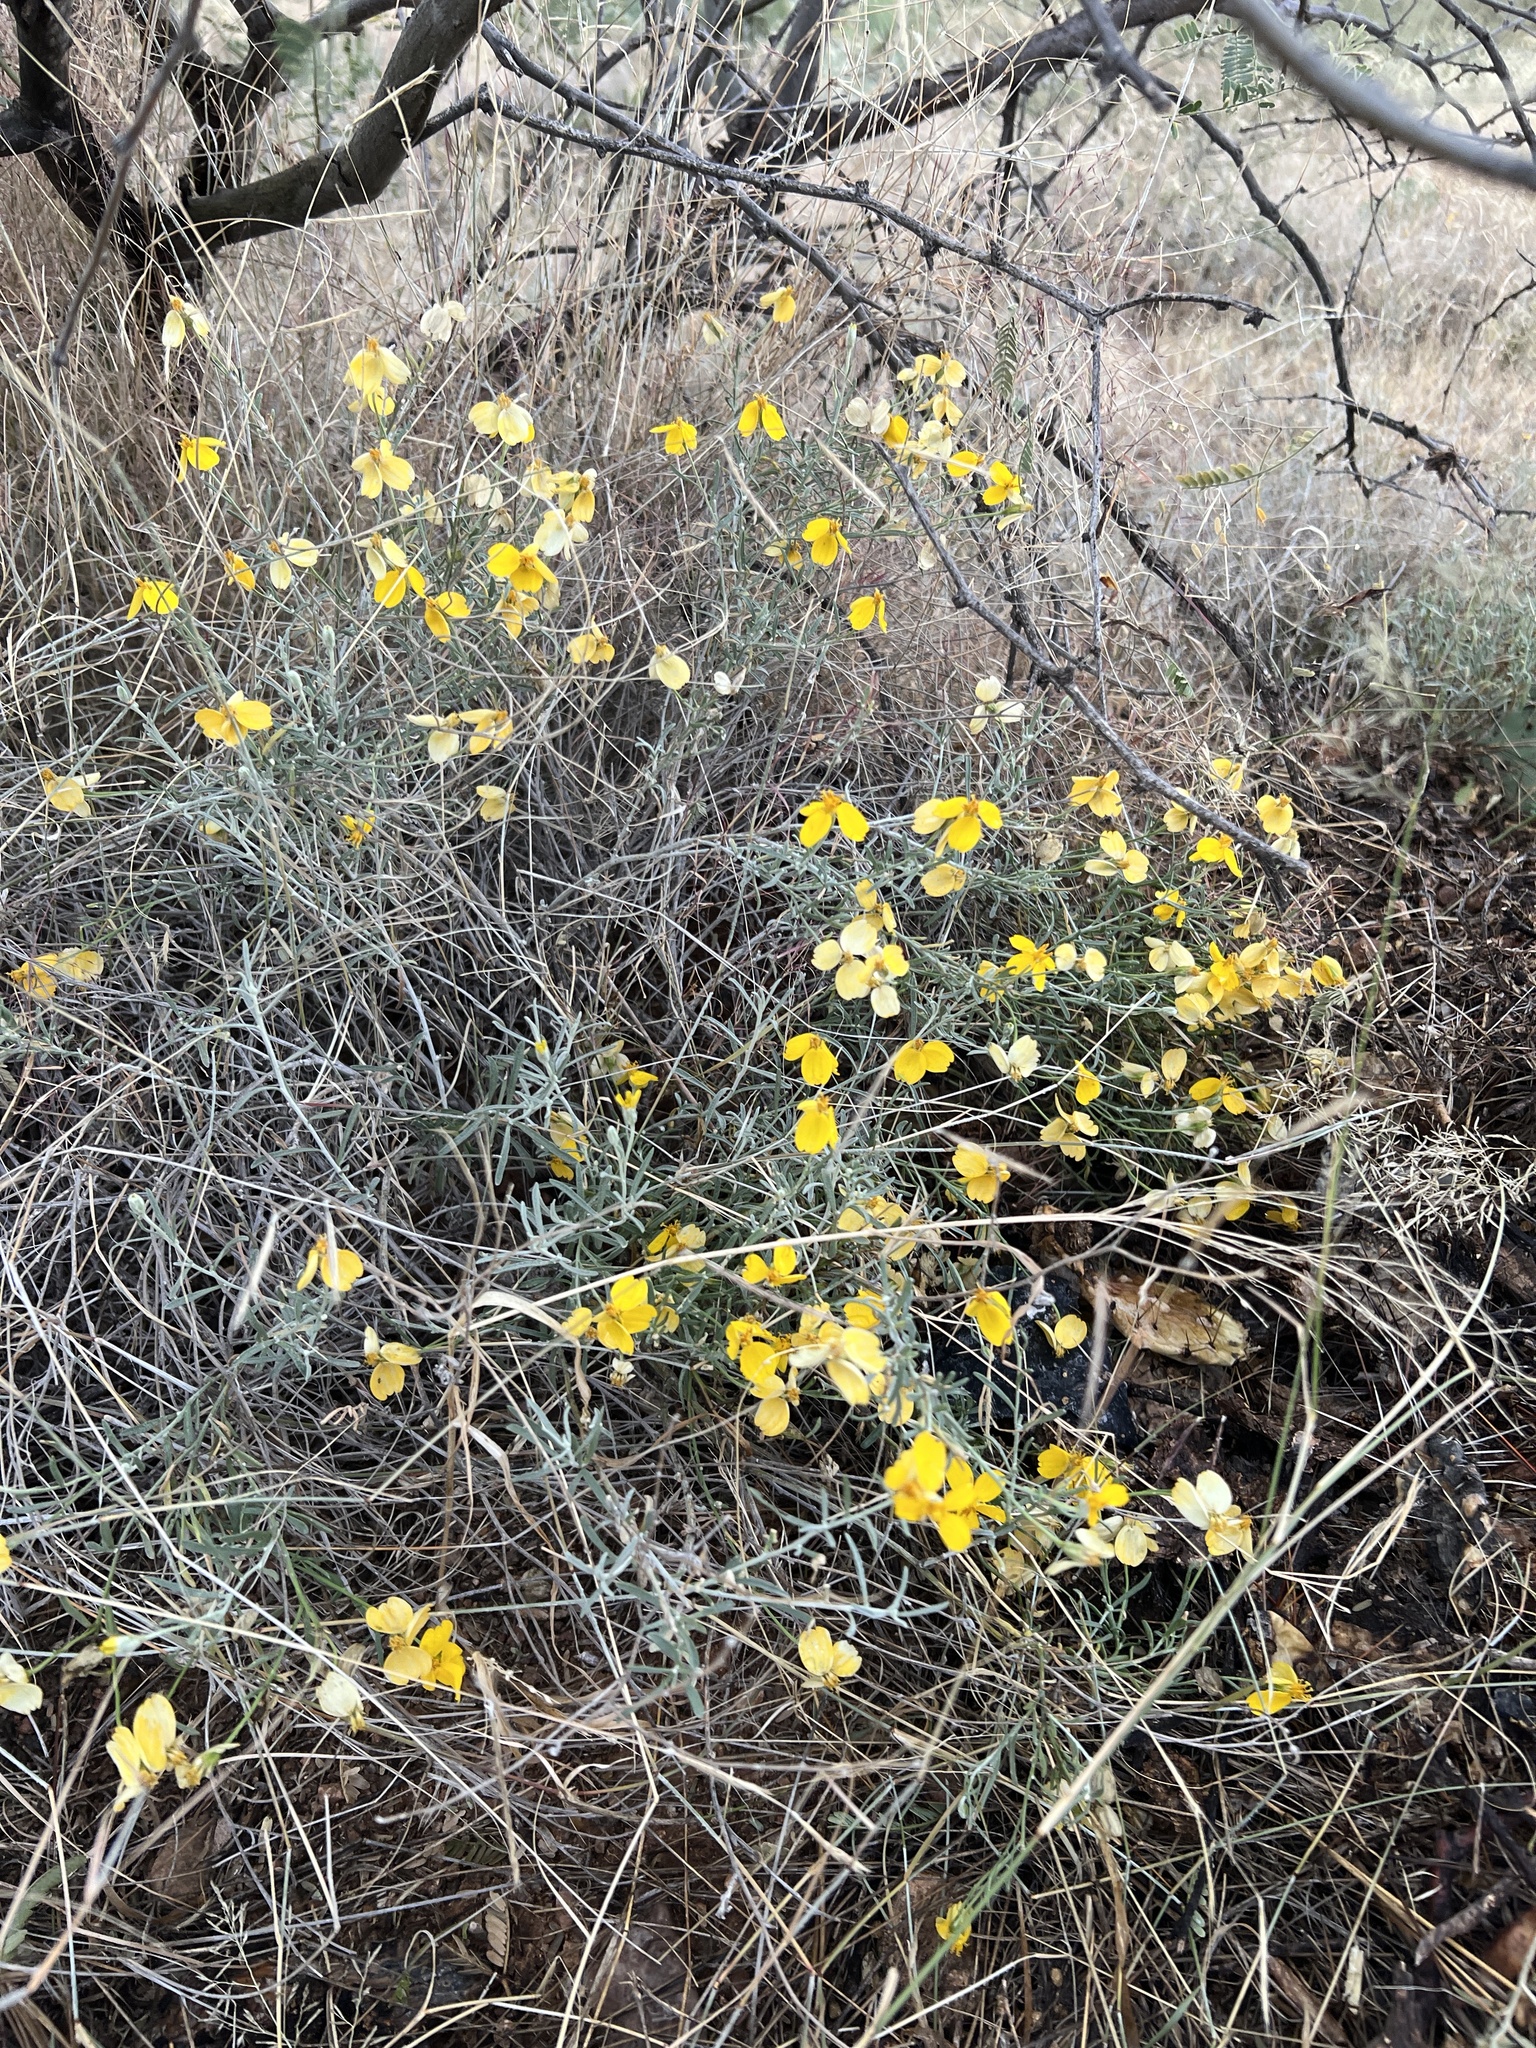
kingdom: Plantae
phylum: Tracheophyta
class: Magnoliopsida
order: Asterales
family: Asteraceae
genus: Psilostrophe
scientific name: Psilostrophe cooperi
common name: White-stem paper-flower
